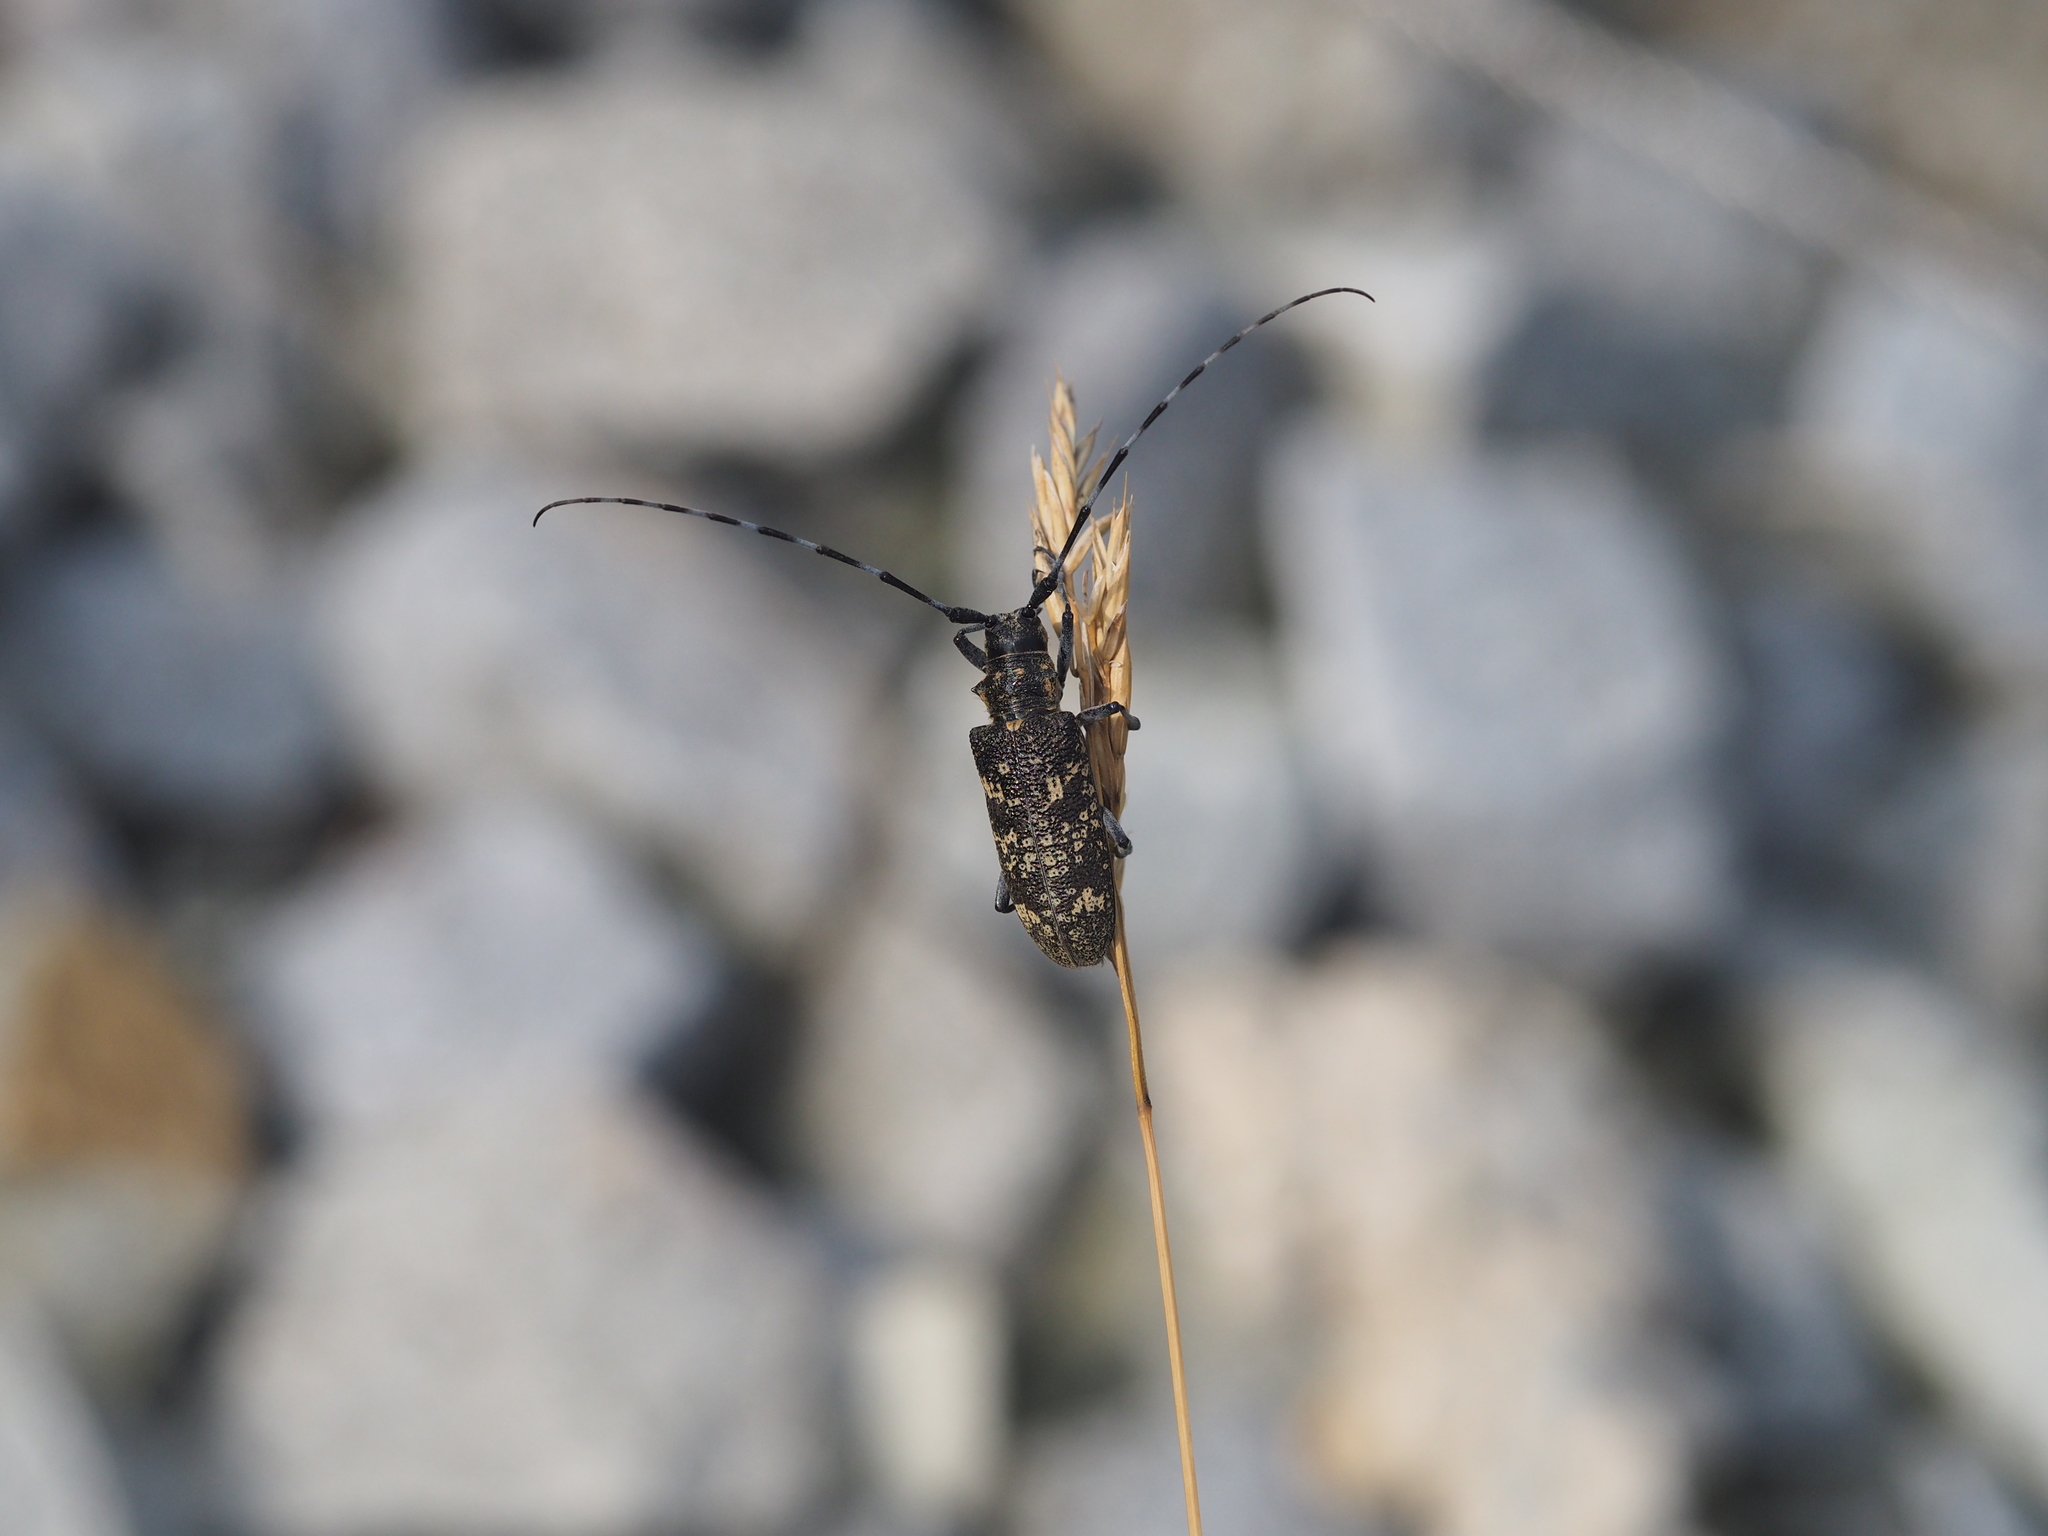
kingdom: Animalia
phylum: Arthropoda
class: Insecta
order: Coleoptera
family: Cerambycidae
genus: Monochamus
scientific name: Monochamus sutor
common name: Pine sawyer
